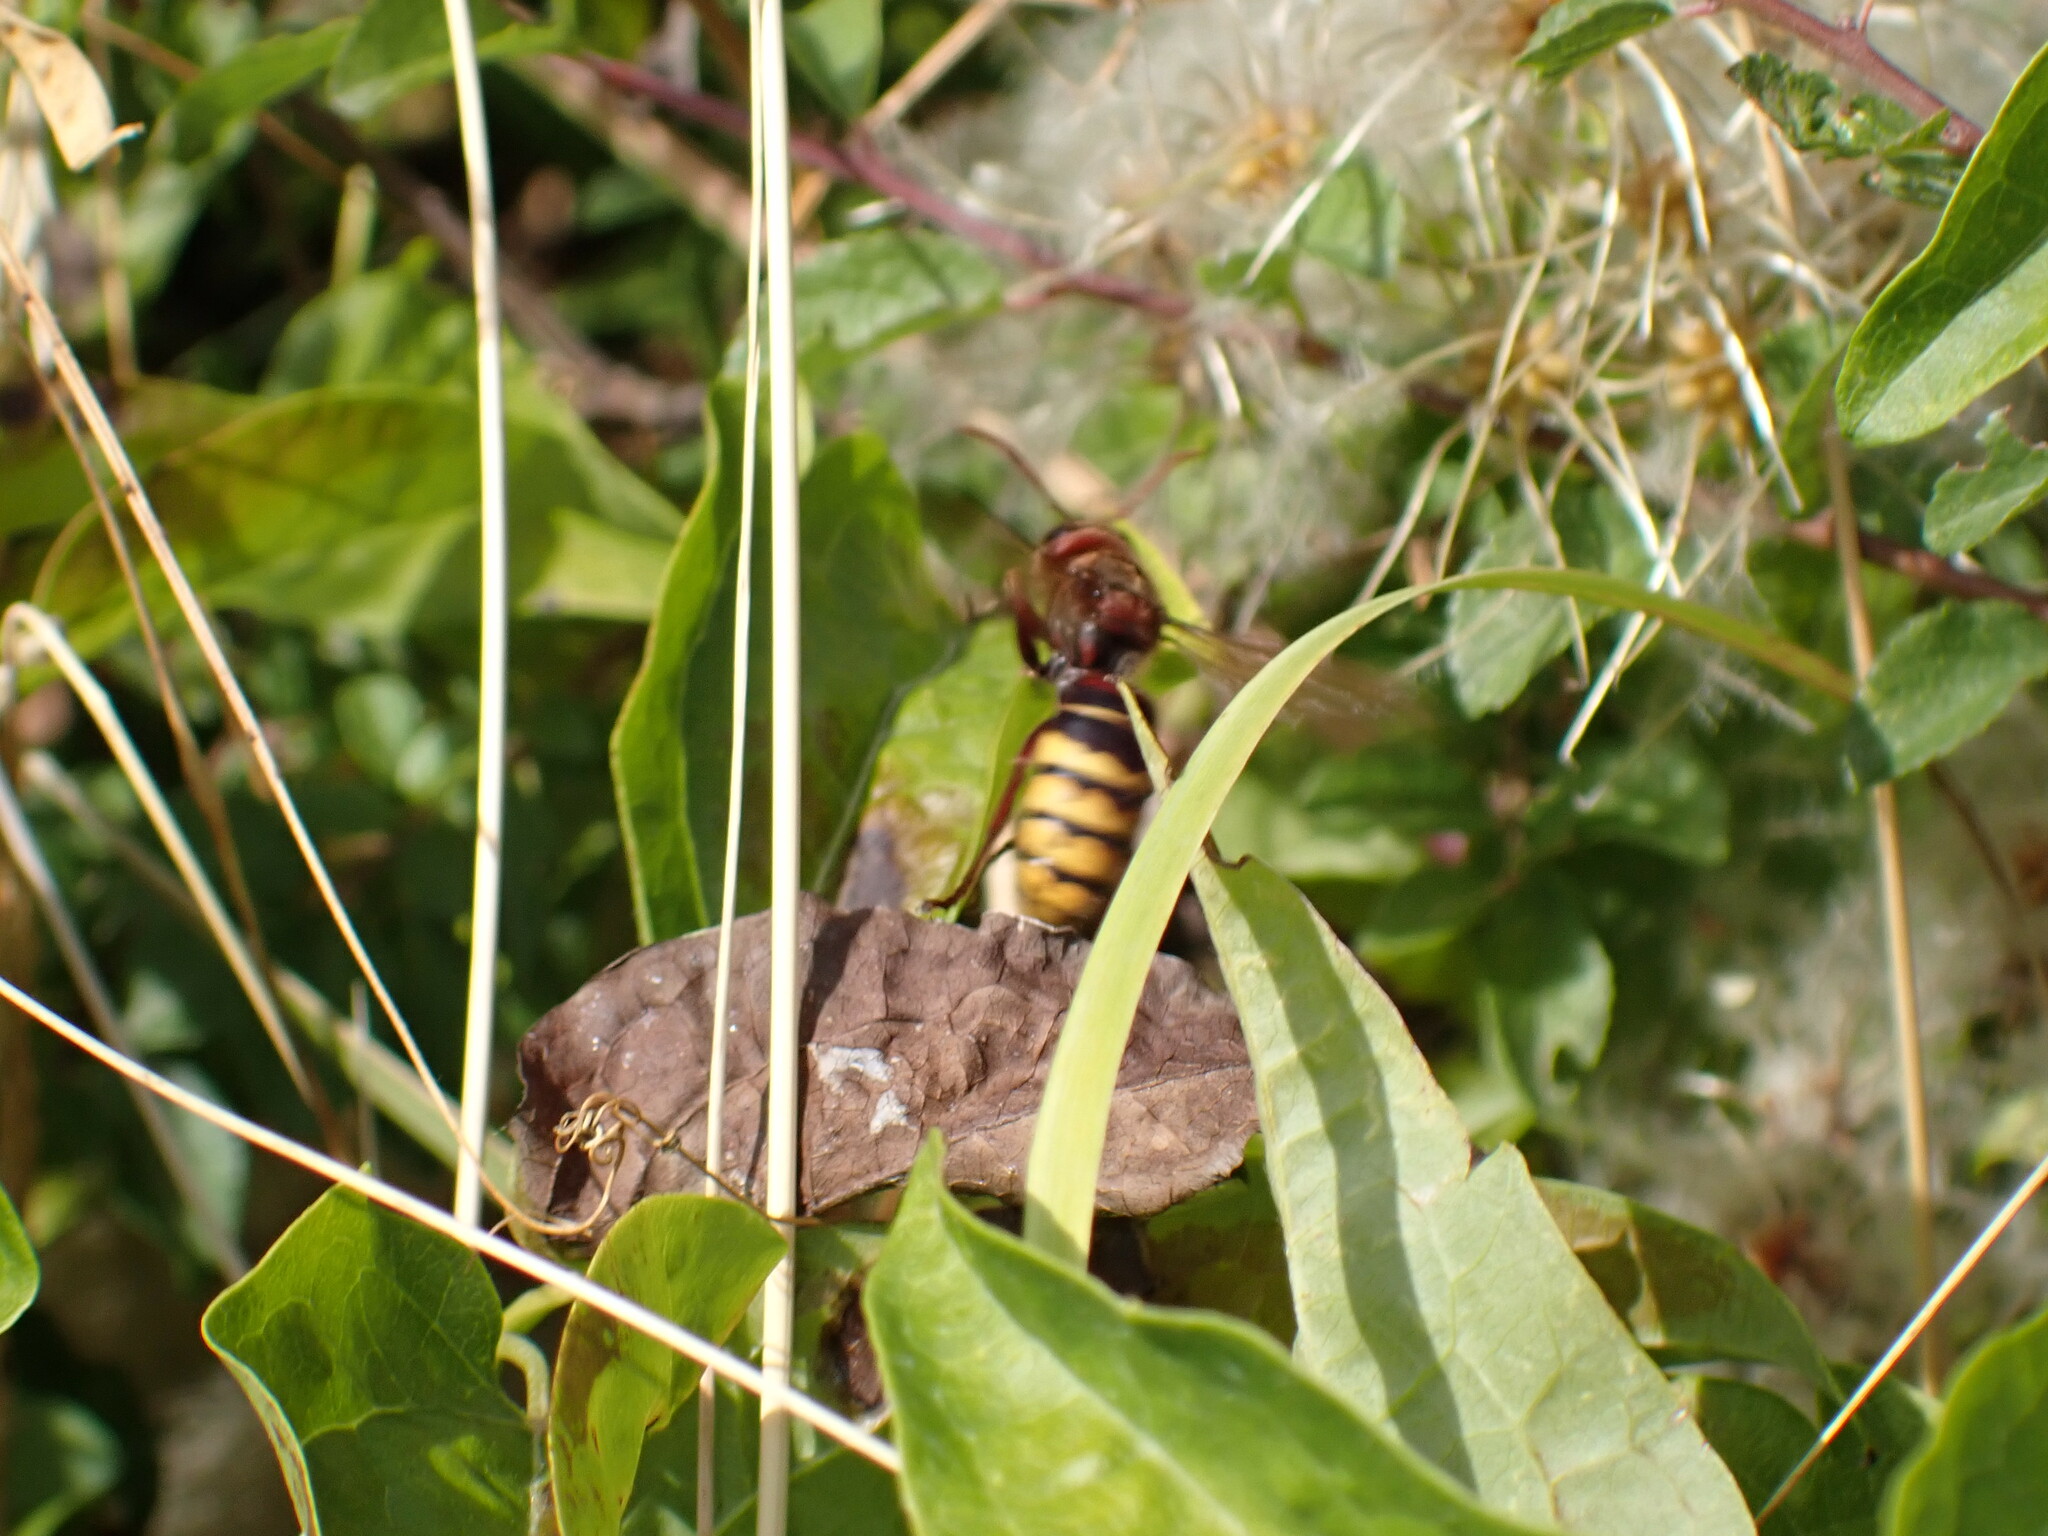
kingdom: Animalia
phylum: Arthropoda
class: Insecta
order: Hymenoptera
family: Vespidae
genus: Vespa
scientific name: Vespa crabro
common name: Hornet
